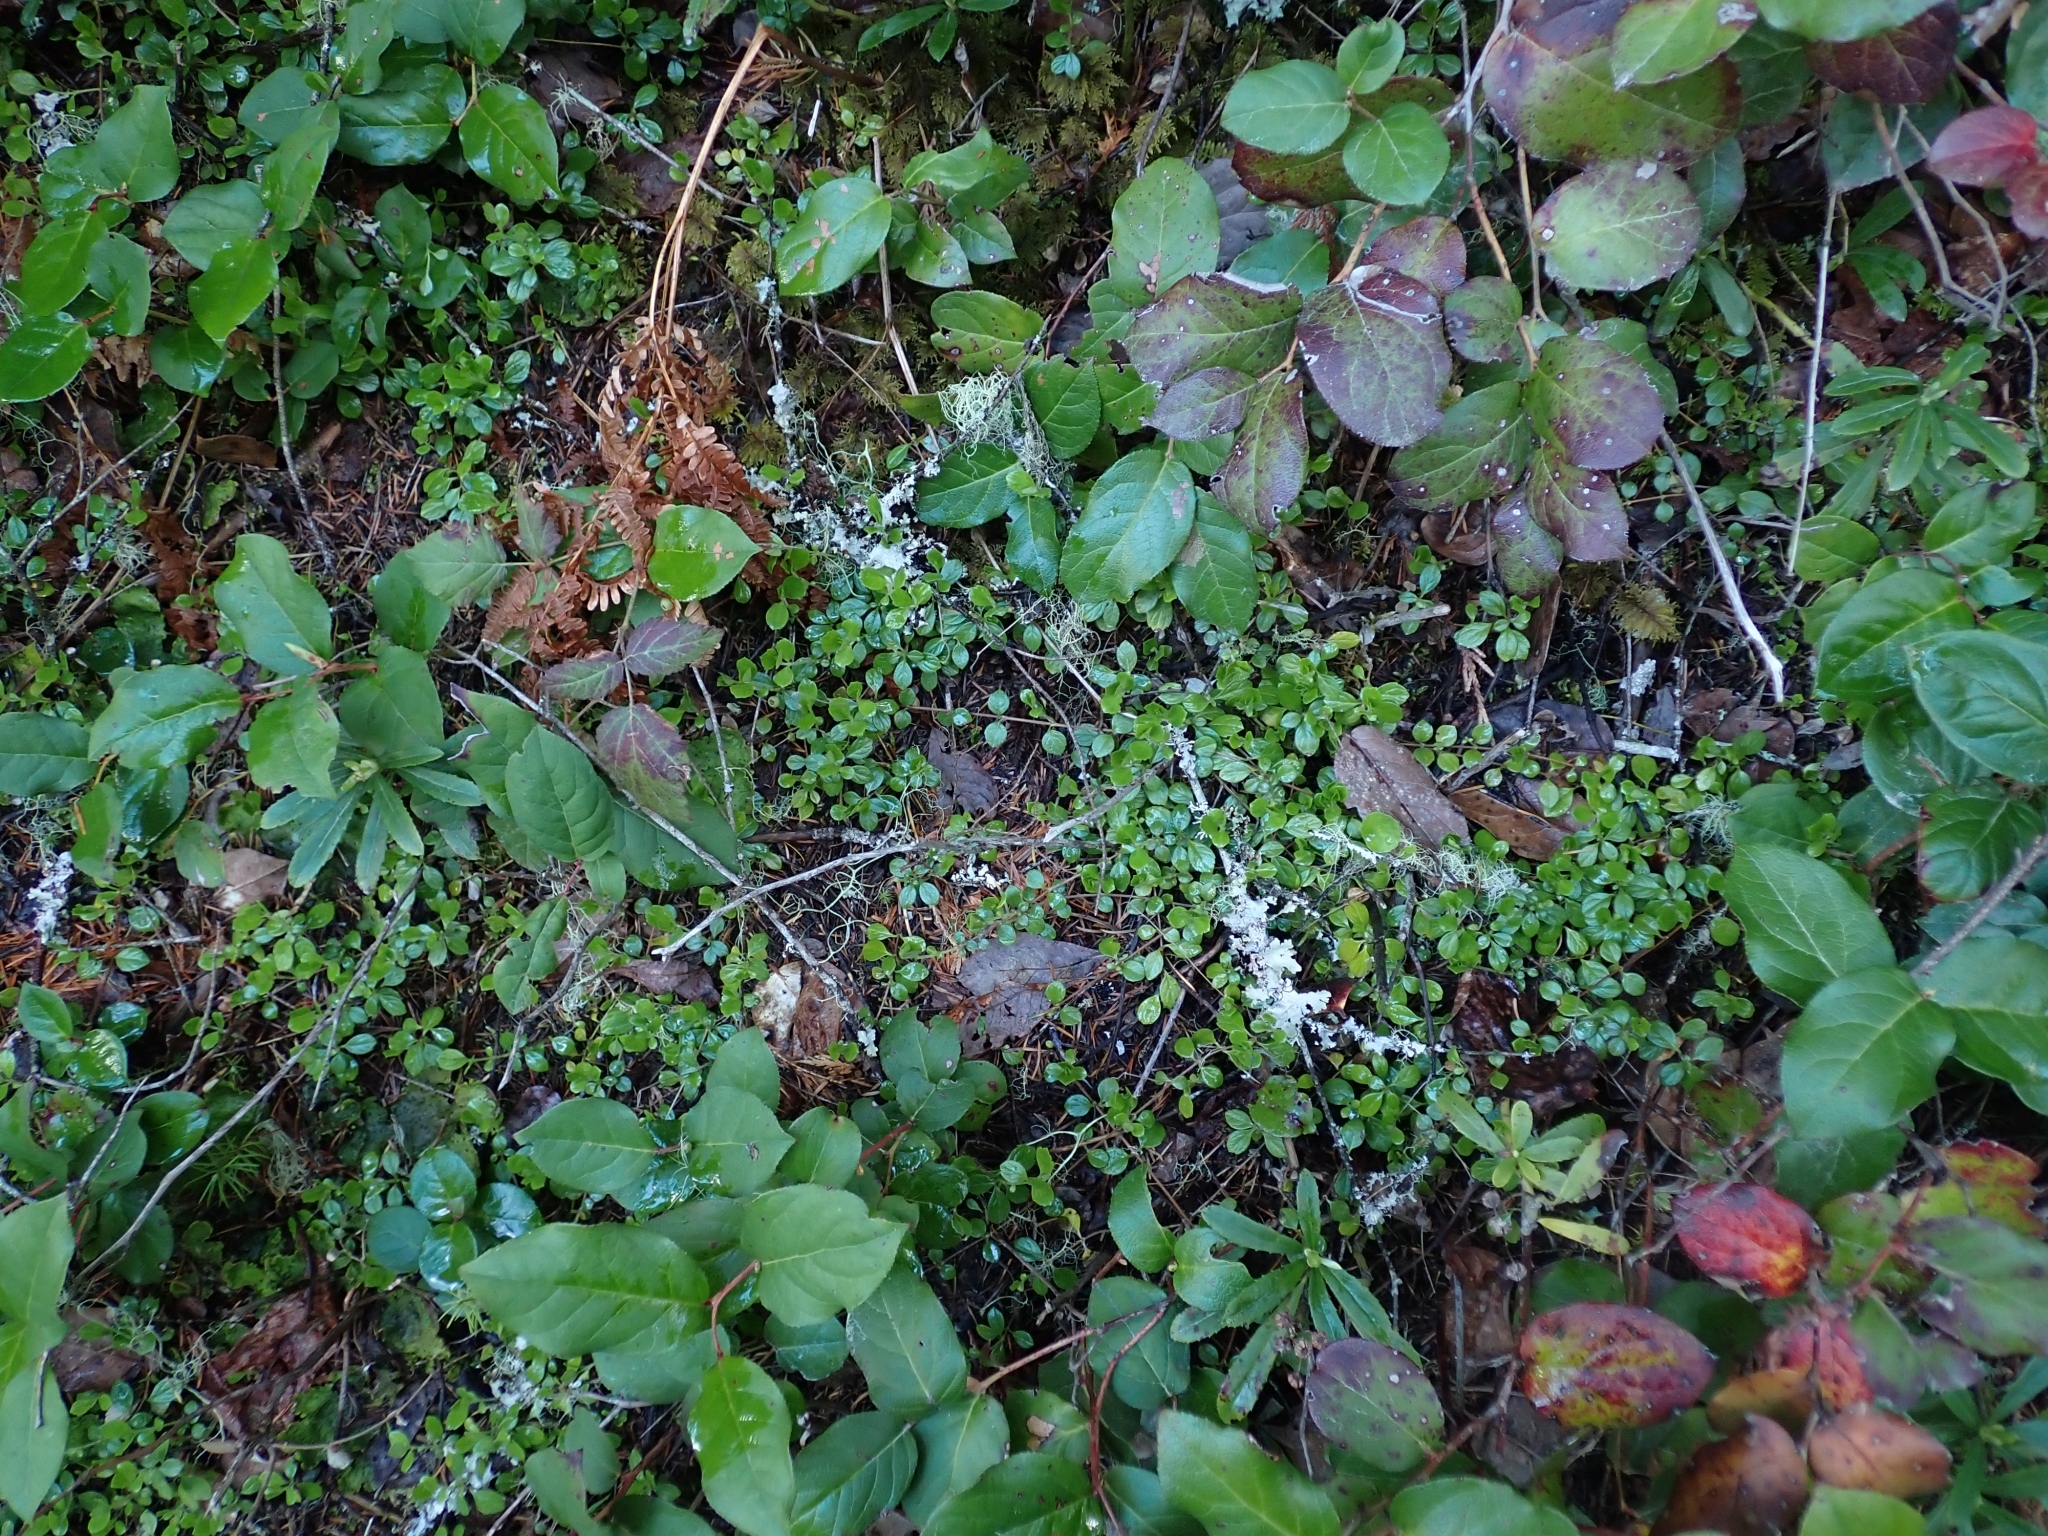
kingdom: Plantae
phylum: Tracheophyta
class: Magnoliopsida
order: Dipsacales
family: Caprifoliaceae
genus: Linnaea
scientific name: Linnaea borealis
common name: Twinflower
